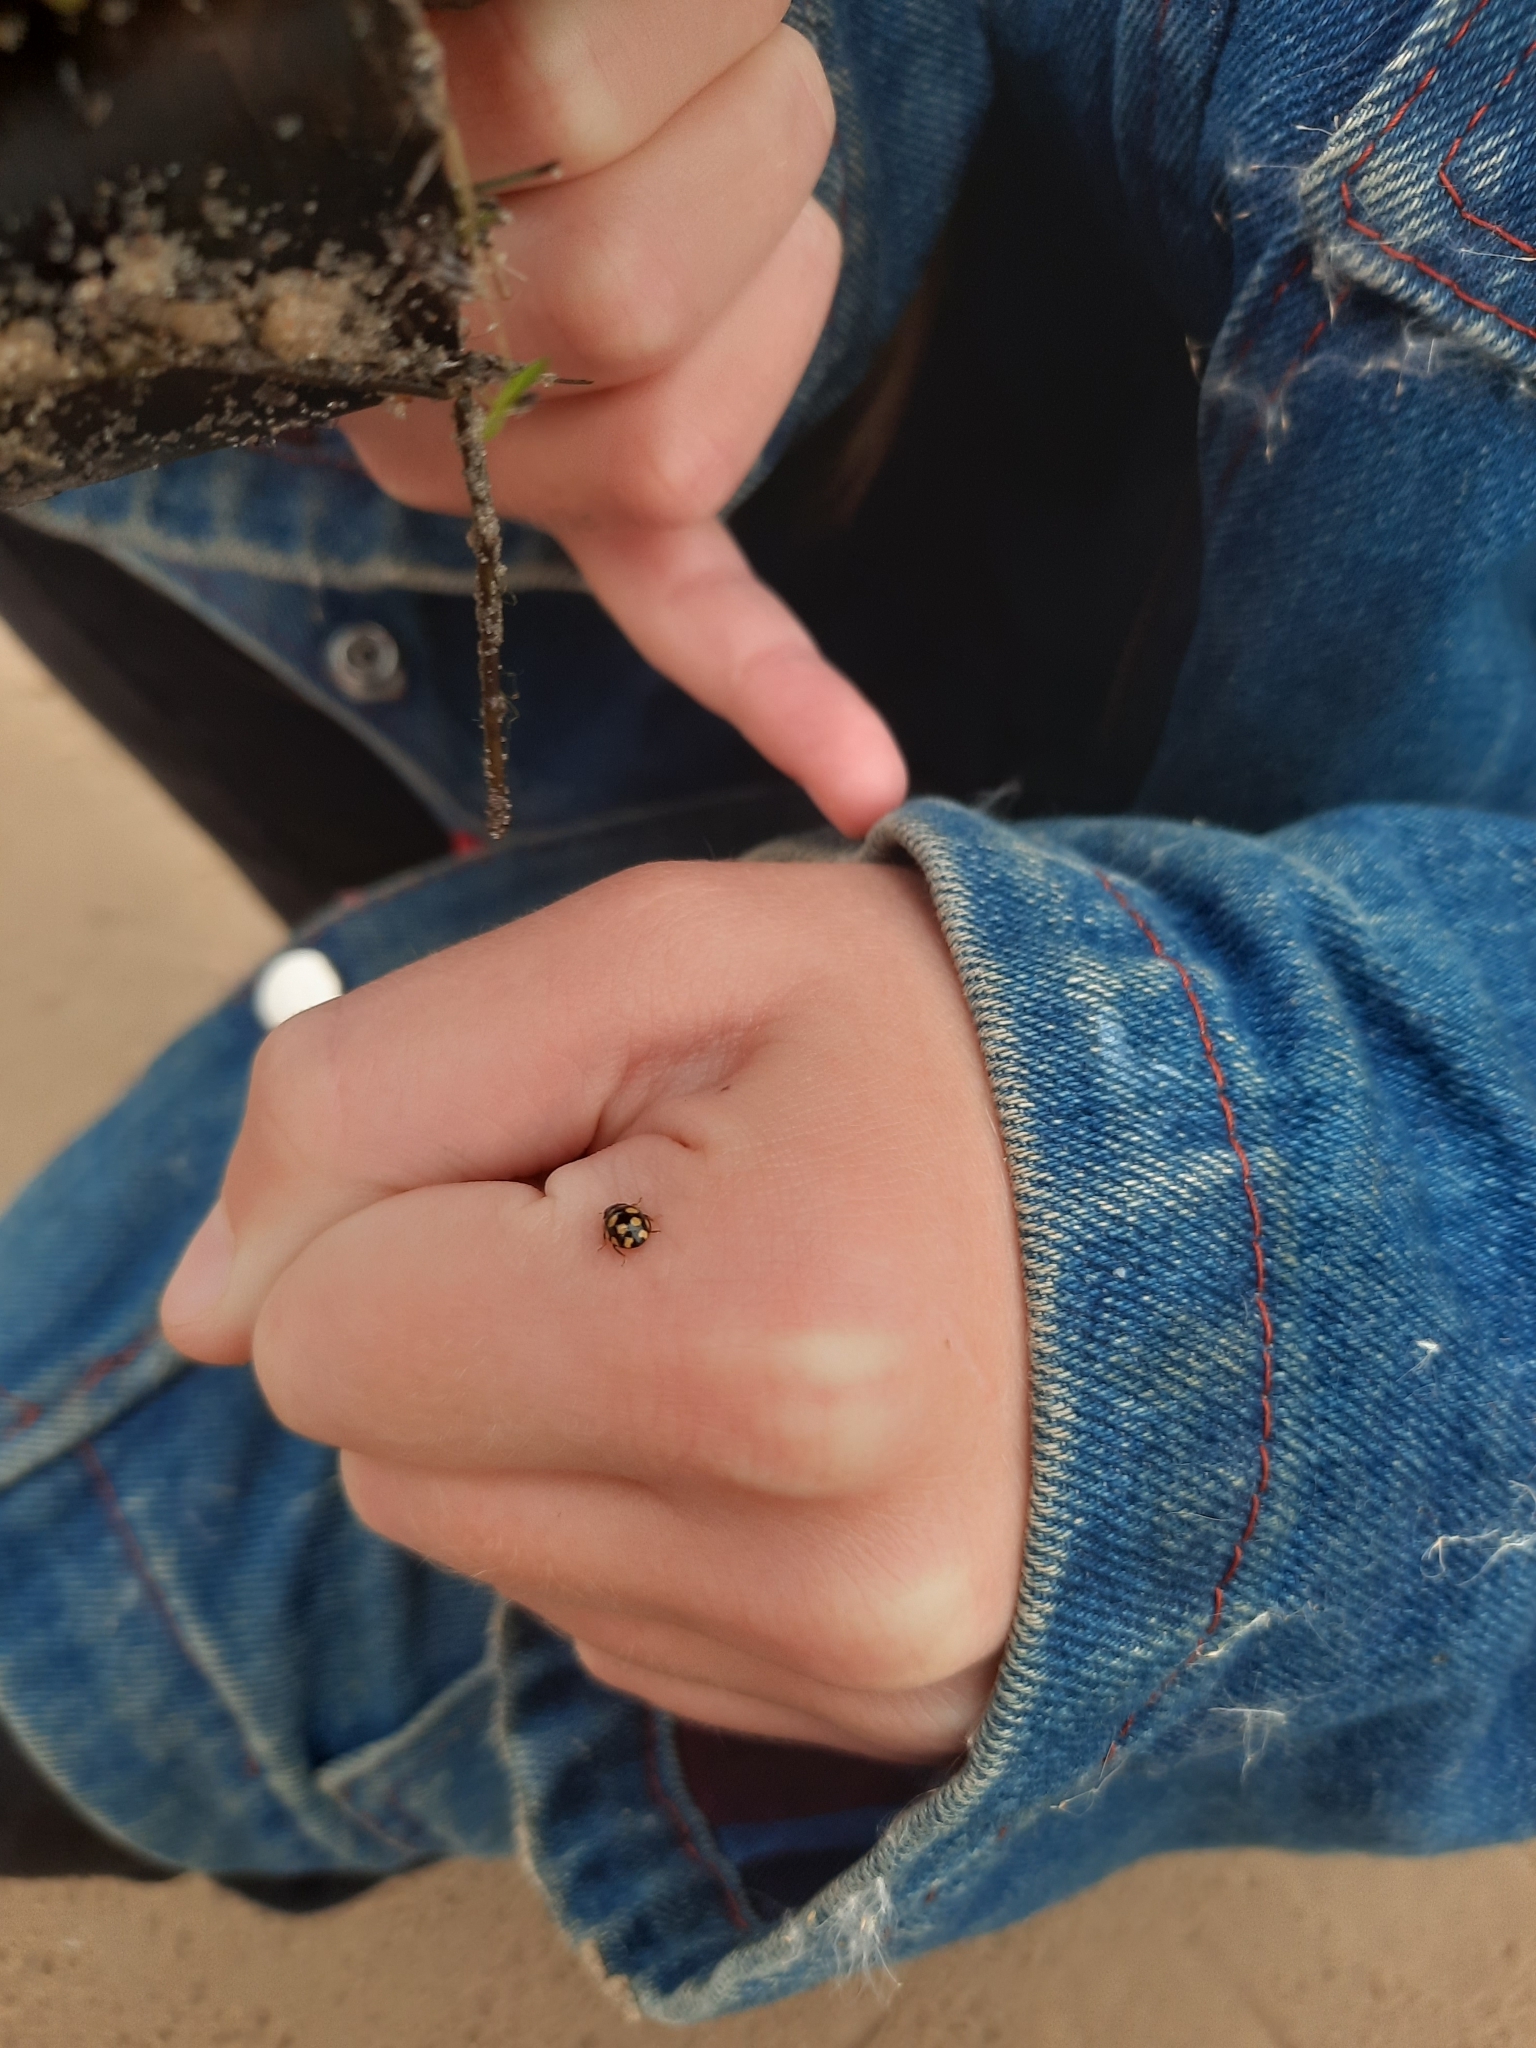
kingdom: Animalia
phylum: Arthropoda
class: Insecta
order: Coleoptera
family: Coccinellidae
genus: Coccinula
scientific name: Coccinula quatuordecimpustulata
